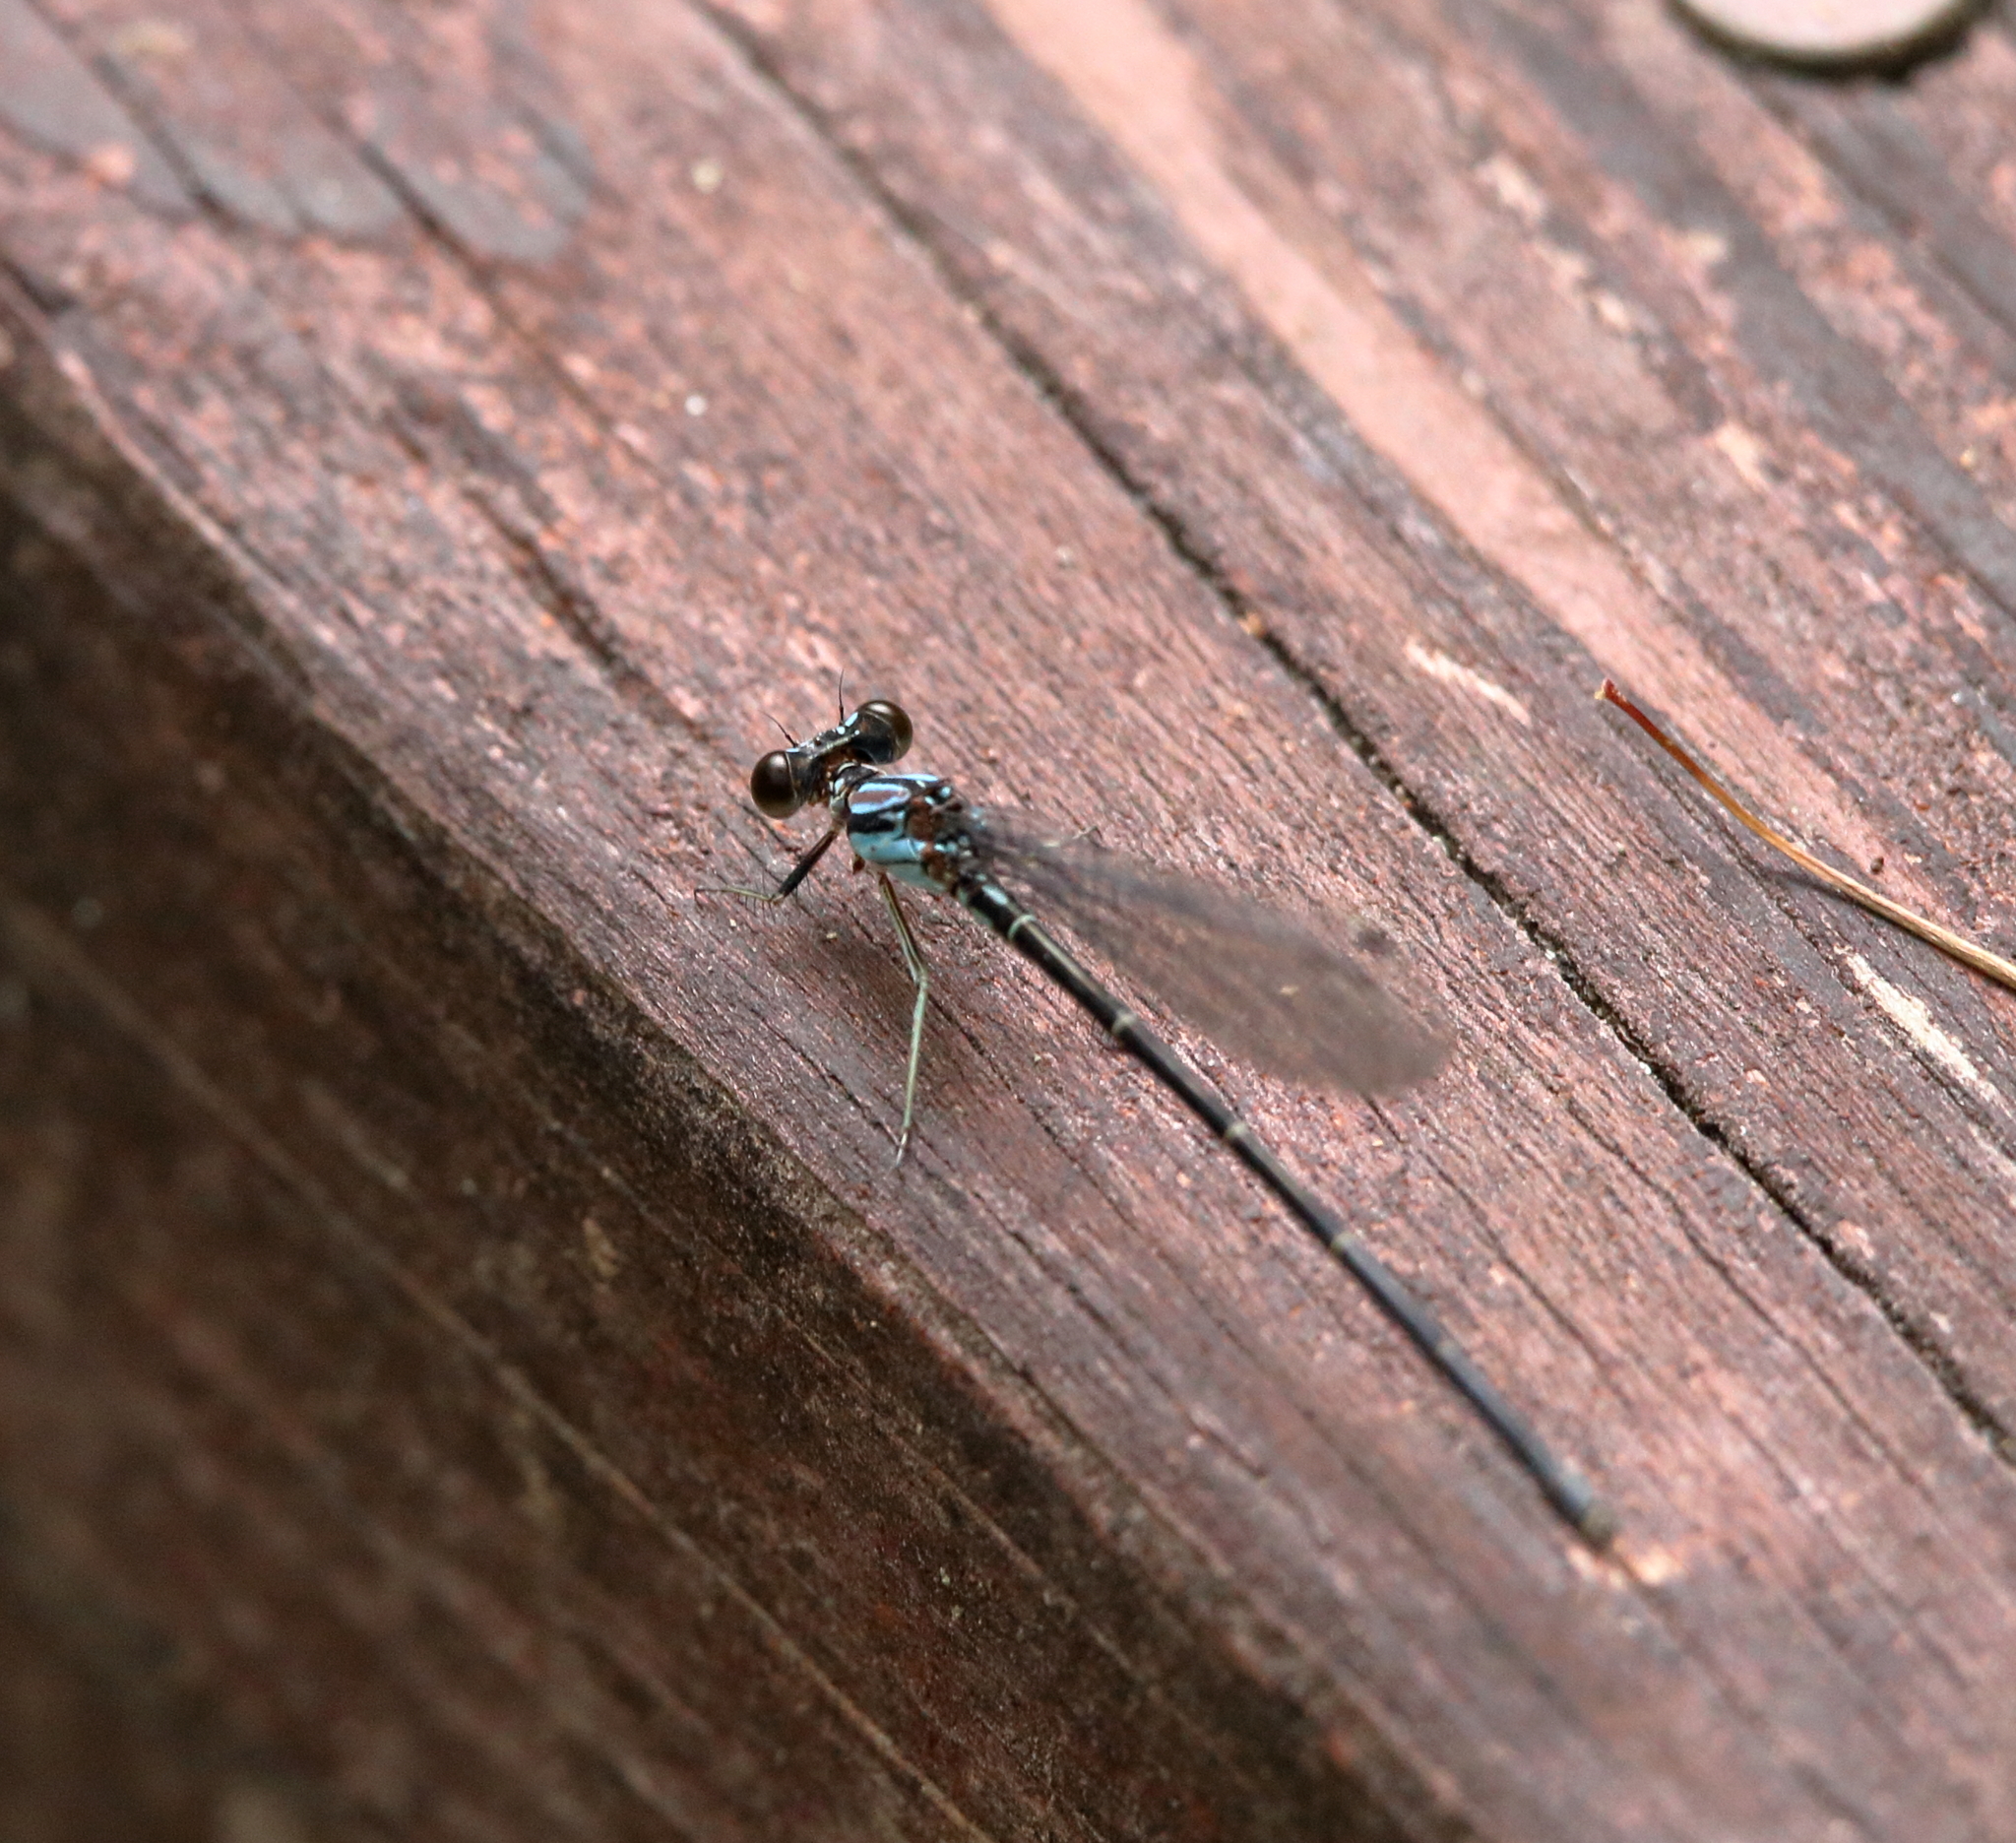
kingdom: Animalia
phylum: Arthropoda
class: Insecta
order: Odonata
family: Coenagrionidae
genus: Argia
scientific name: Argia tibialis
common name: Blue-tipped dancer
